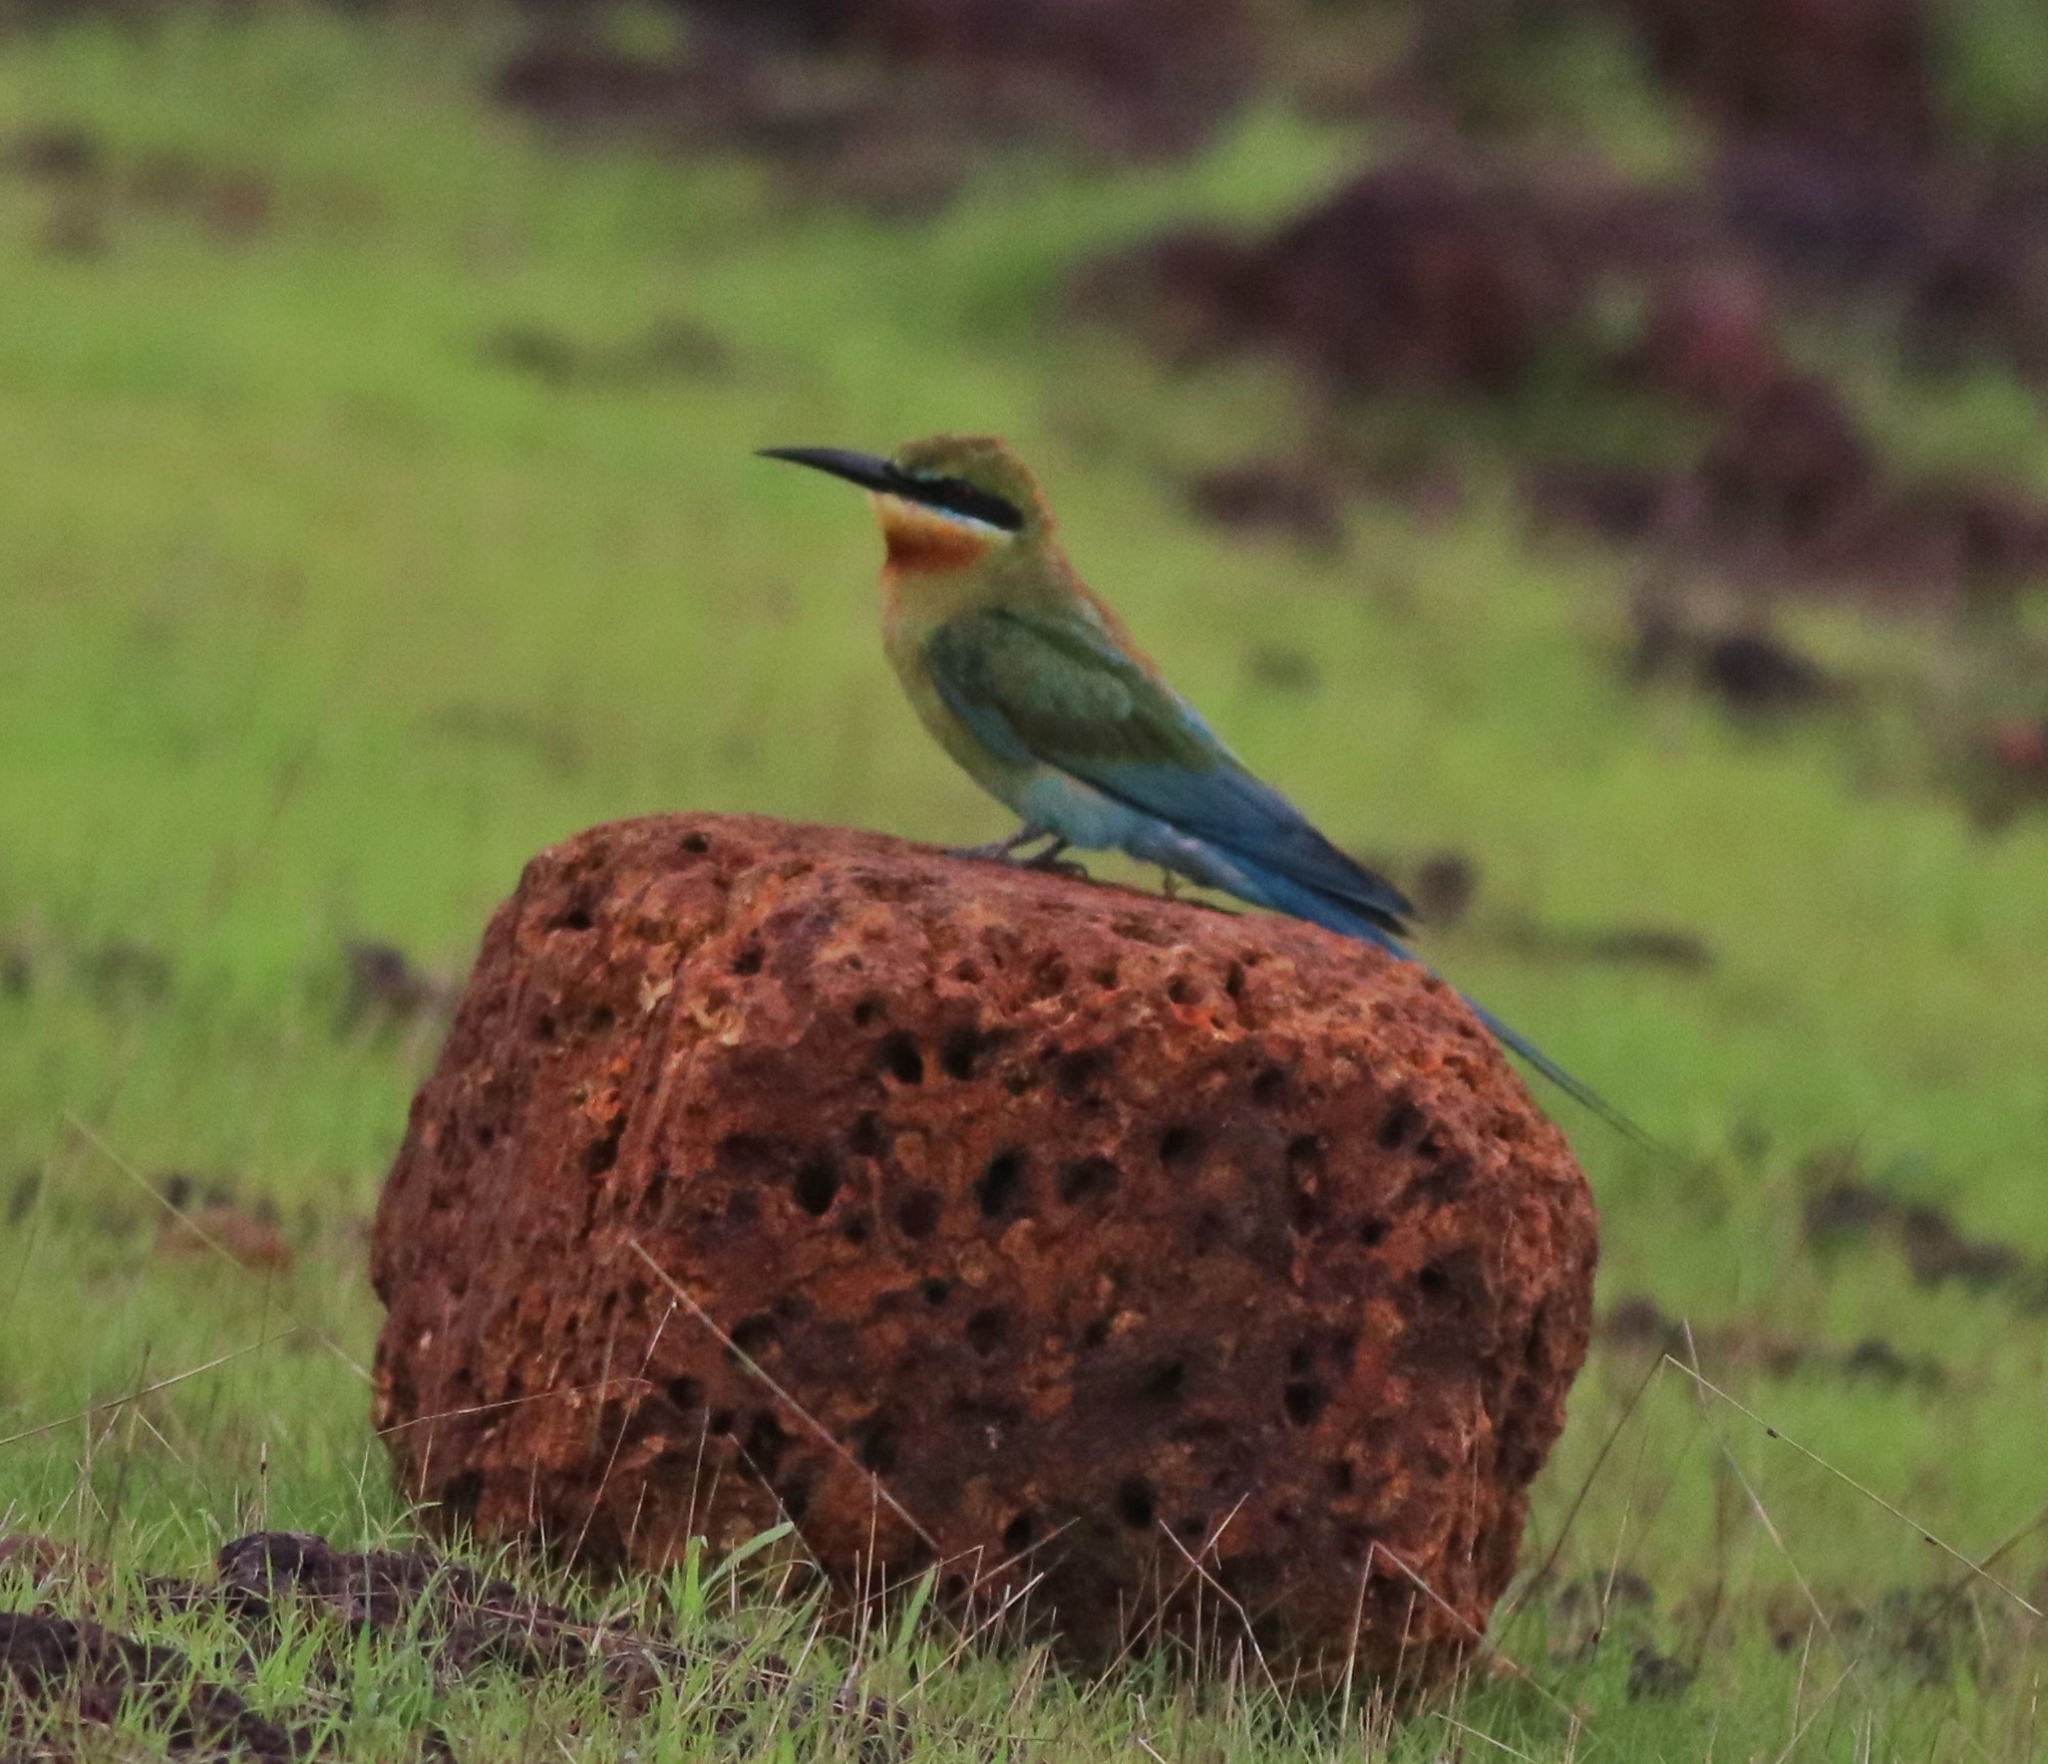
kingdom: Animalia
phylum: Chordata
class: Aves
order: Coraciiformes
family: Meropidae
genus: Merops
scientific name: Merops philippinus
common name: Blue-tailed bee-eater
